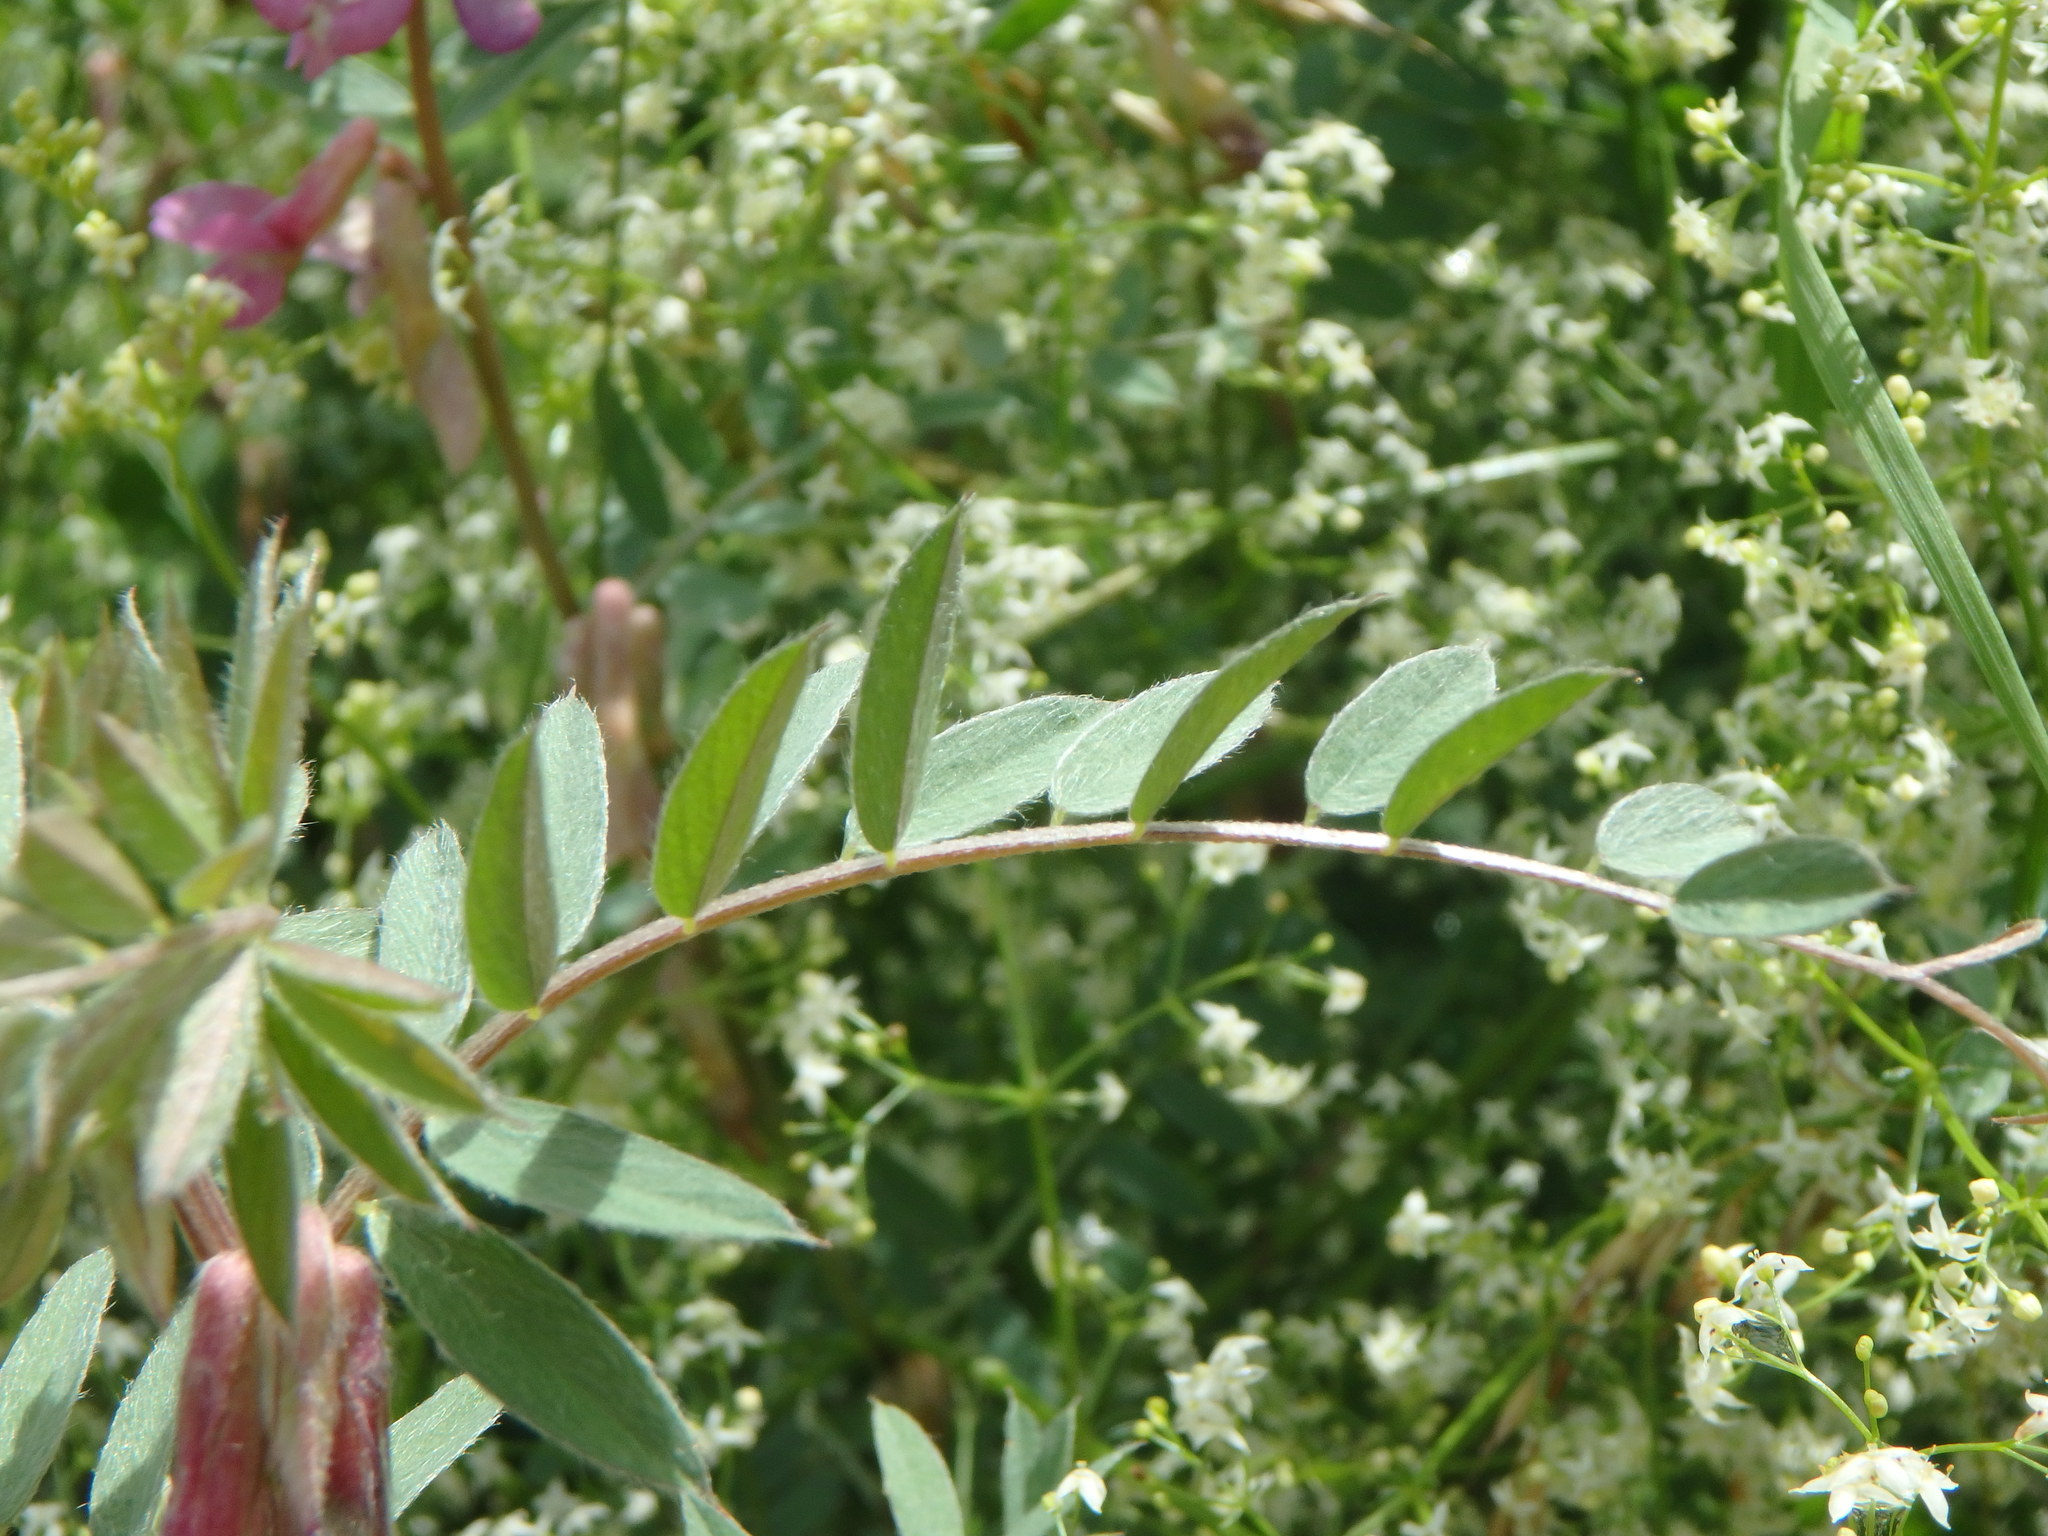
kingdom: Plantae
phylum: Tracheophyta
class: Magnoliopsida
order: Fabales
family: Fabaceae
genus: Vicia
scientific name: Vicia pannonica
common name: Hungarian vetch
